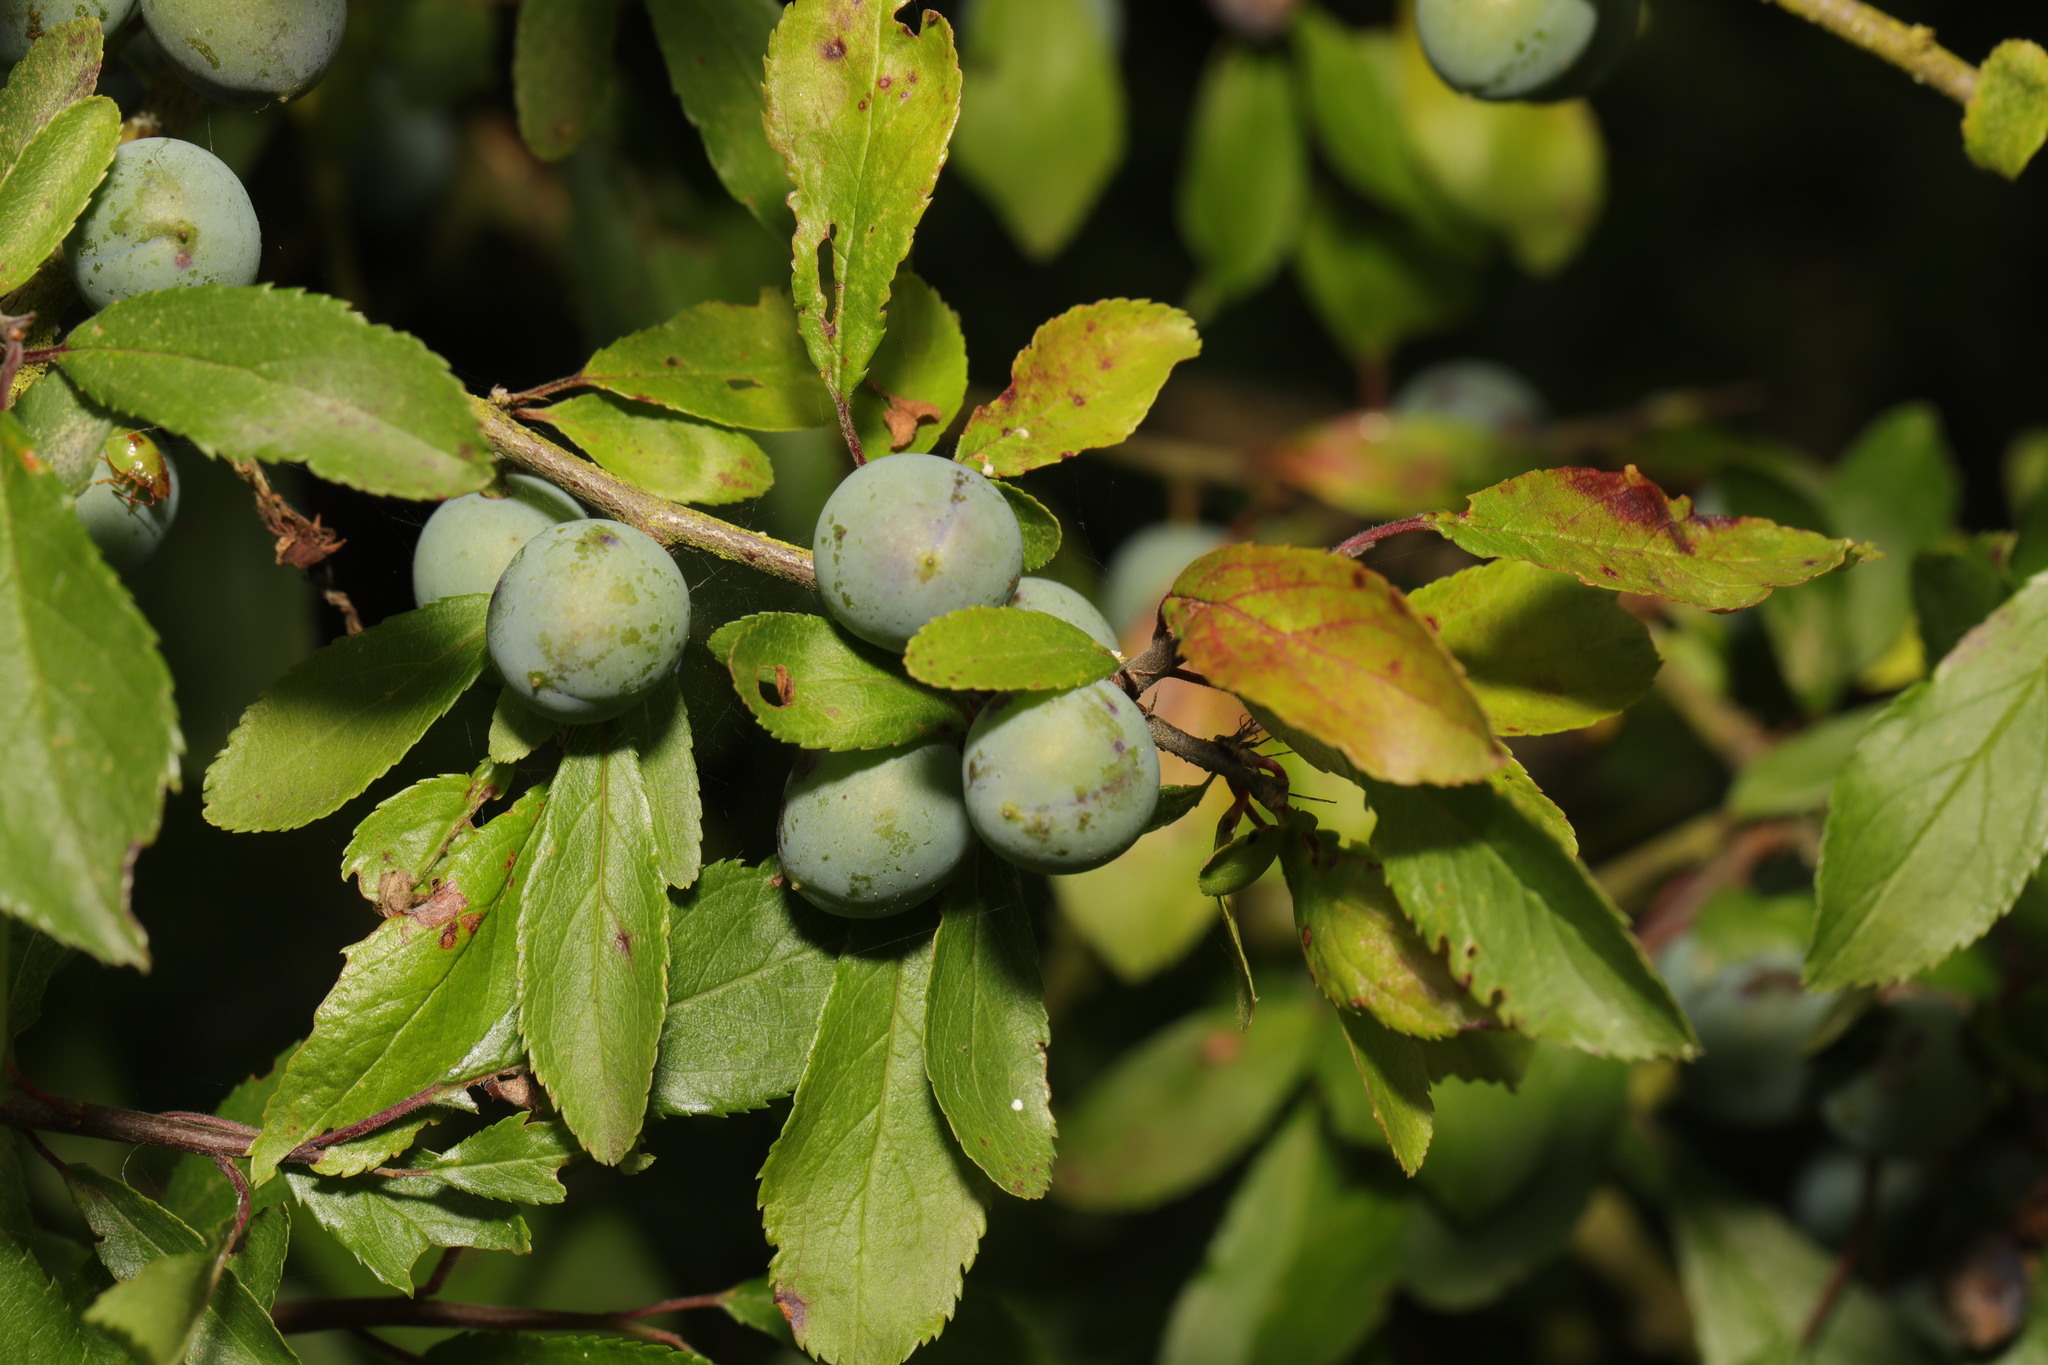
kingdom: Plantae
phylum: Tracheophyta
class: Magnoliopsida
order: Rosales
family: Rosaceae
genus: Prunus
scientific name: Prunus spinosa
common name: Blackthorn
